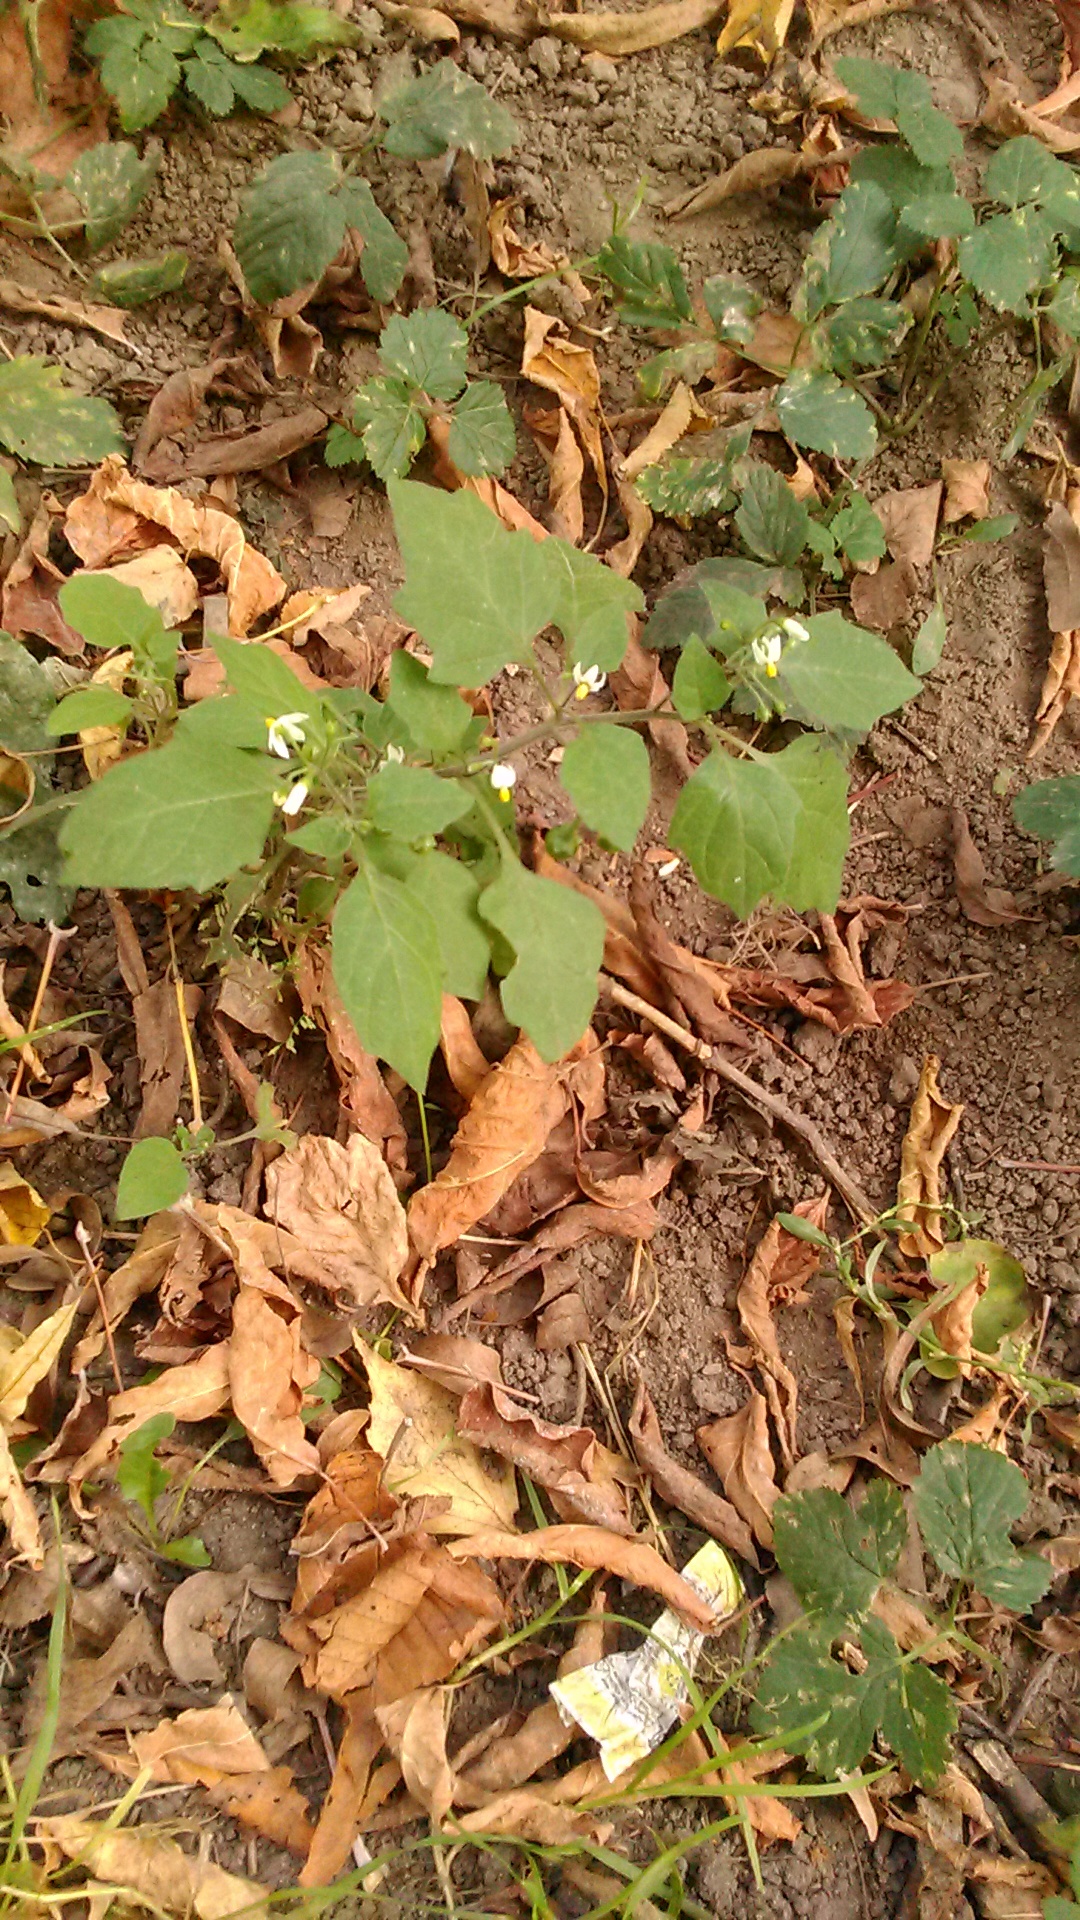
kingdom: Plantae
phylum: Tracheophyta
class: Magnoliopsida
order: Solanales
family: Solanaceae
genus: Solanum
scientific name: Solanum nigrum
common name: Black nightshade
